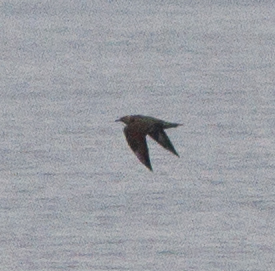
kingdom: Animalia
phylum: Chordata
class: Aves
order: Charadriiformes
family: Stercorariidae
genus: Stercorarius
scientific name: Stercorarius pomarinus
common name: Pomarine jaeger
